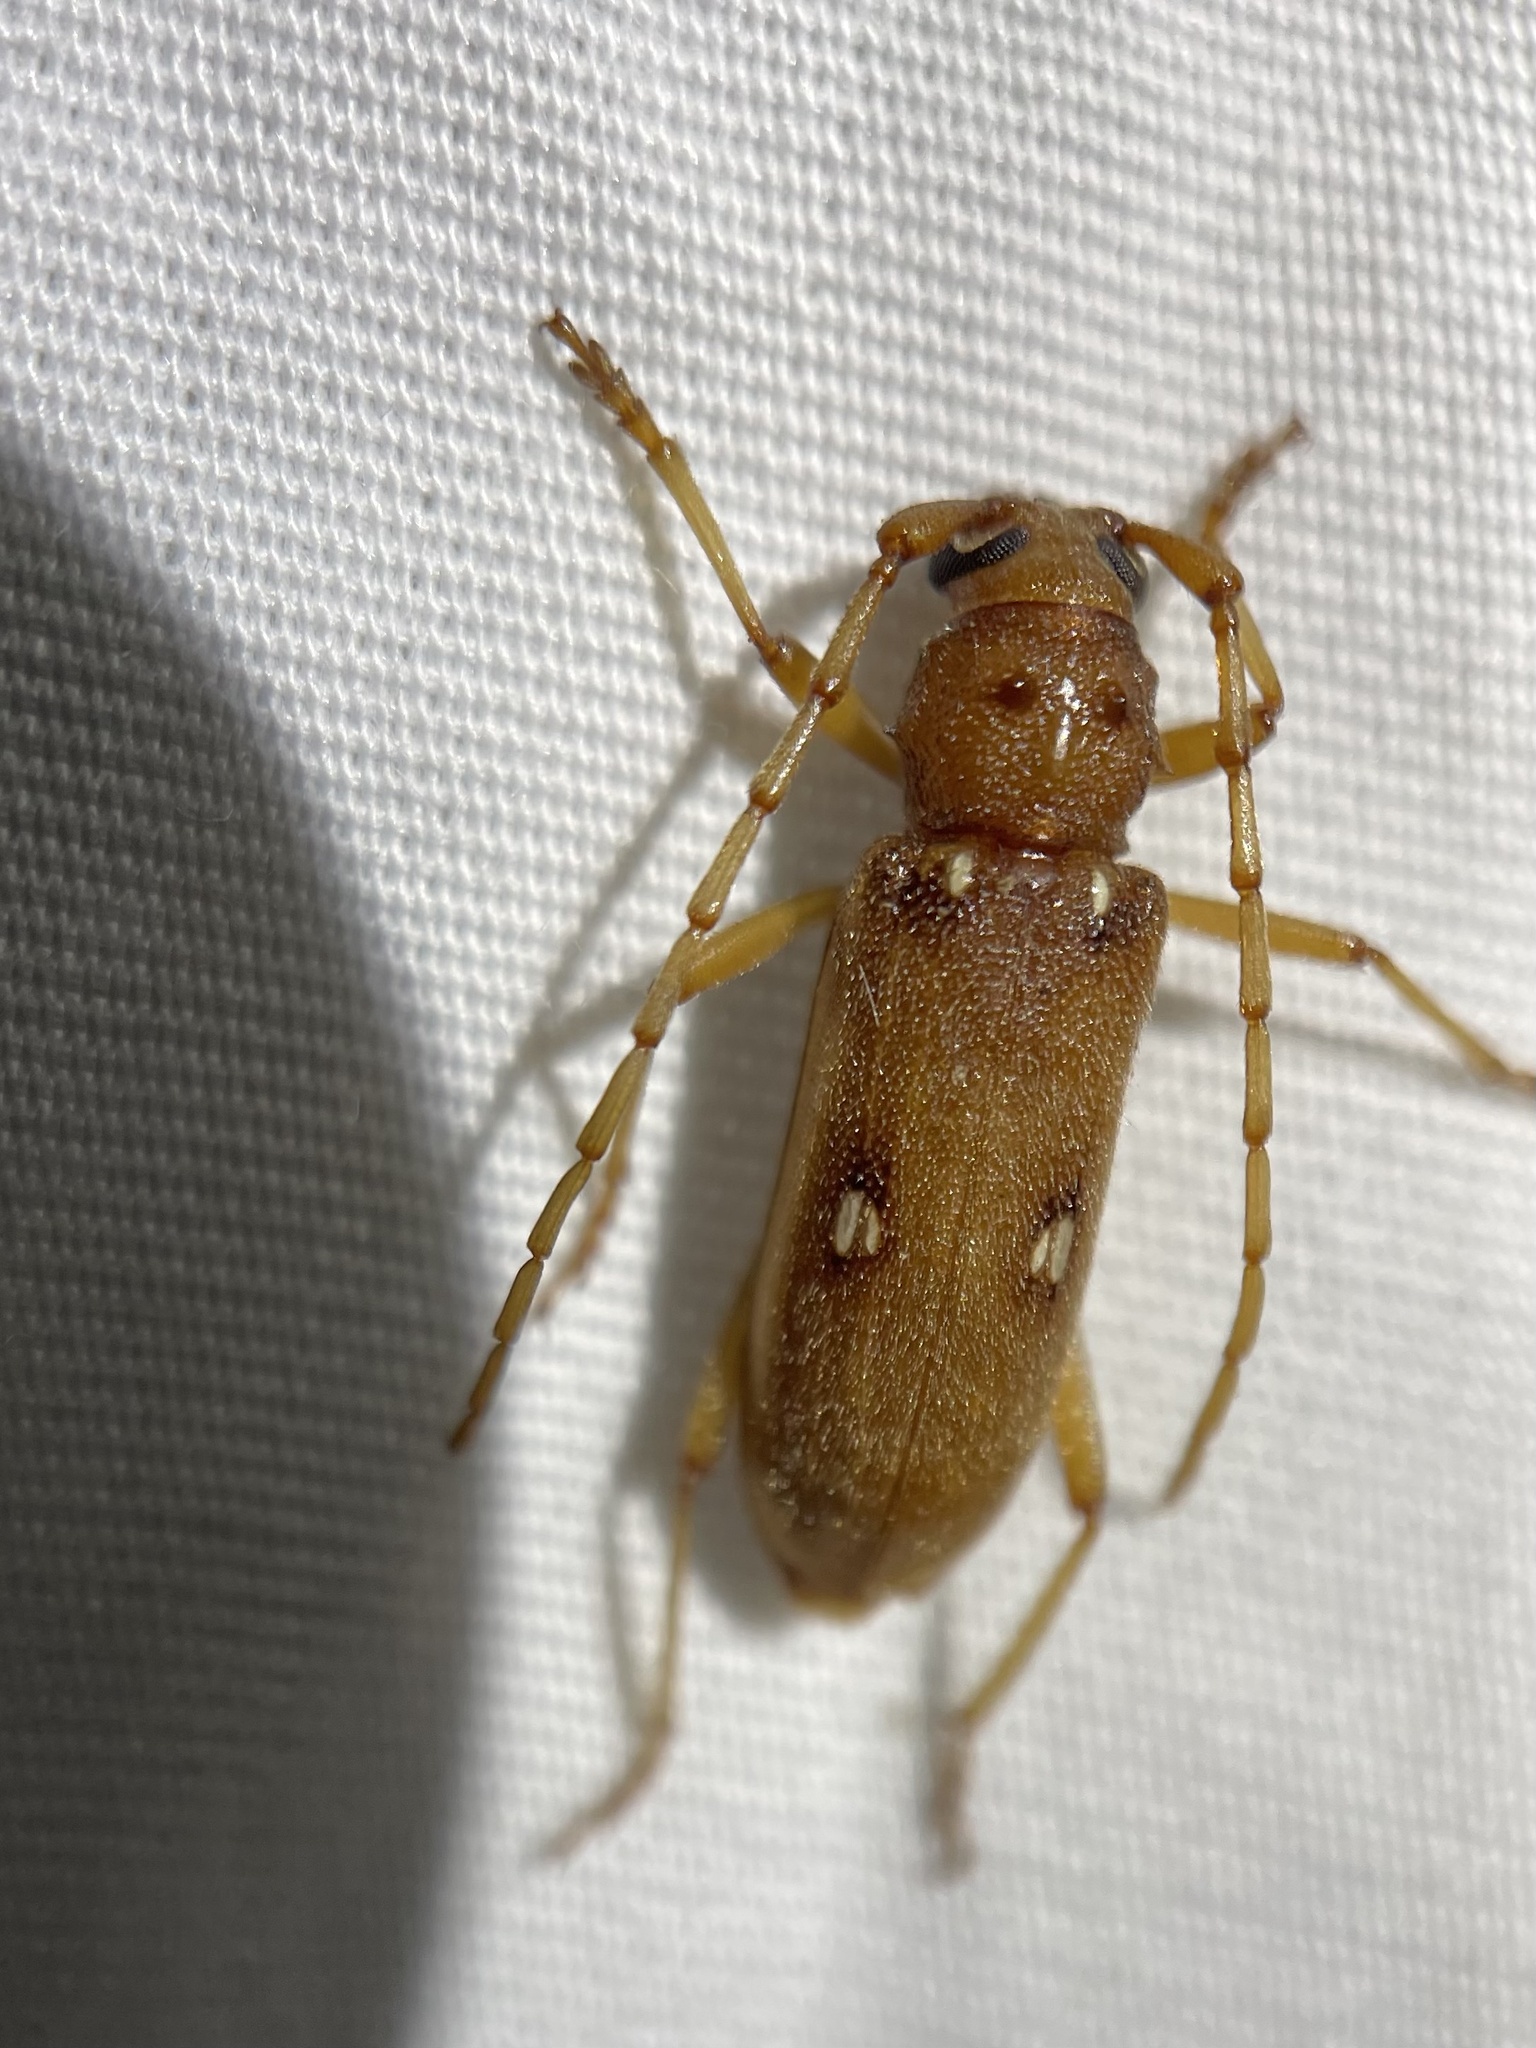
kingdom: Animalia
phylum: Arthropoda
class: Insecta
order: Coleoptera
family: Cerambycidae
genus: Eburia
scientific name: Eburia haldemani
